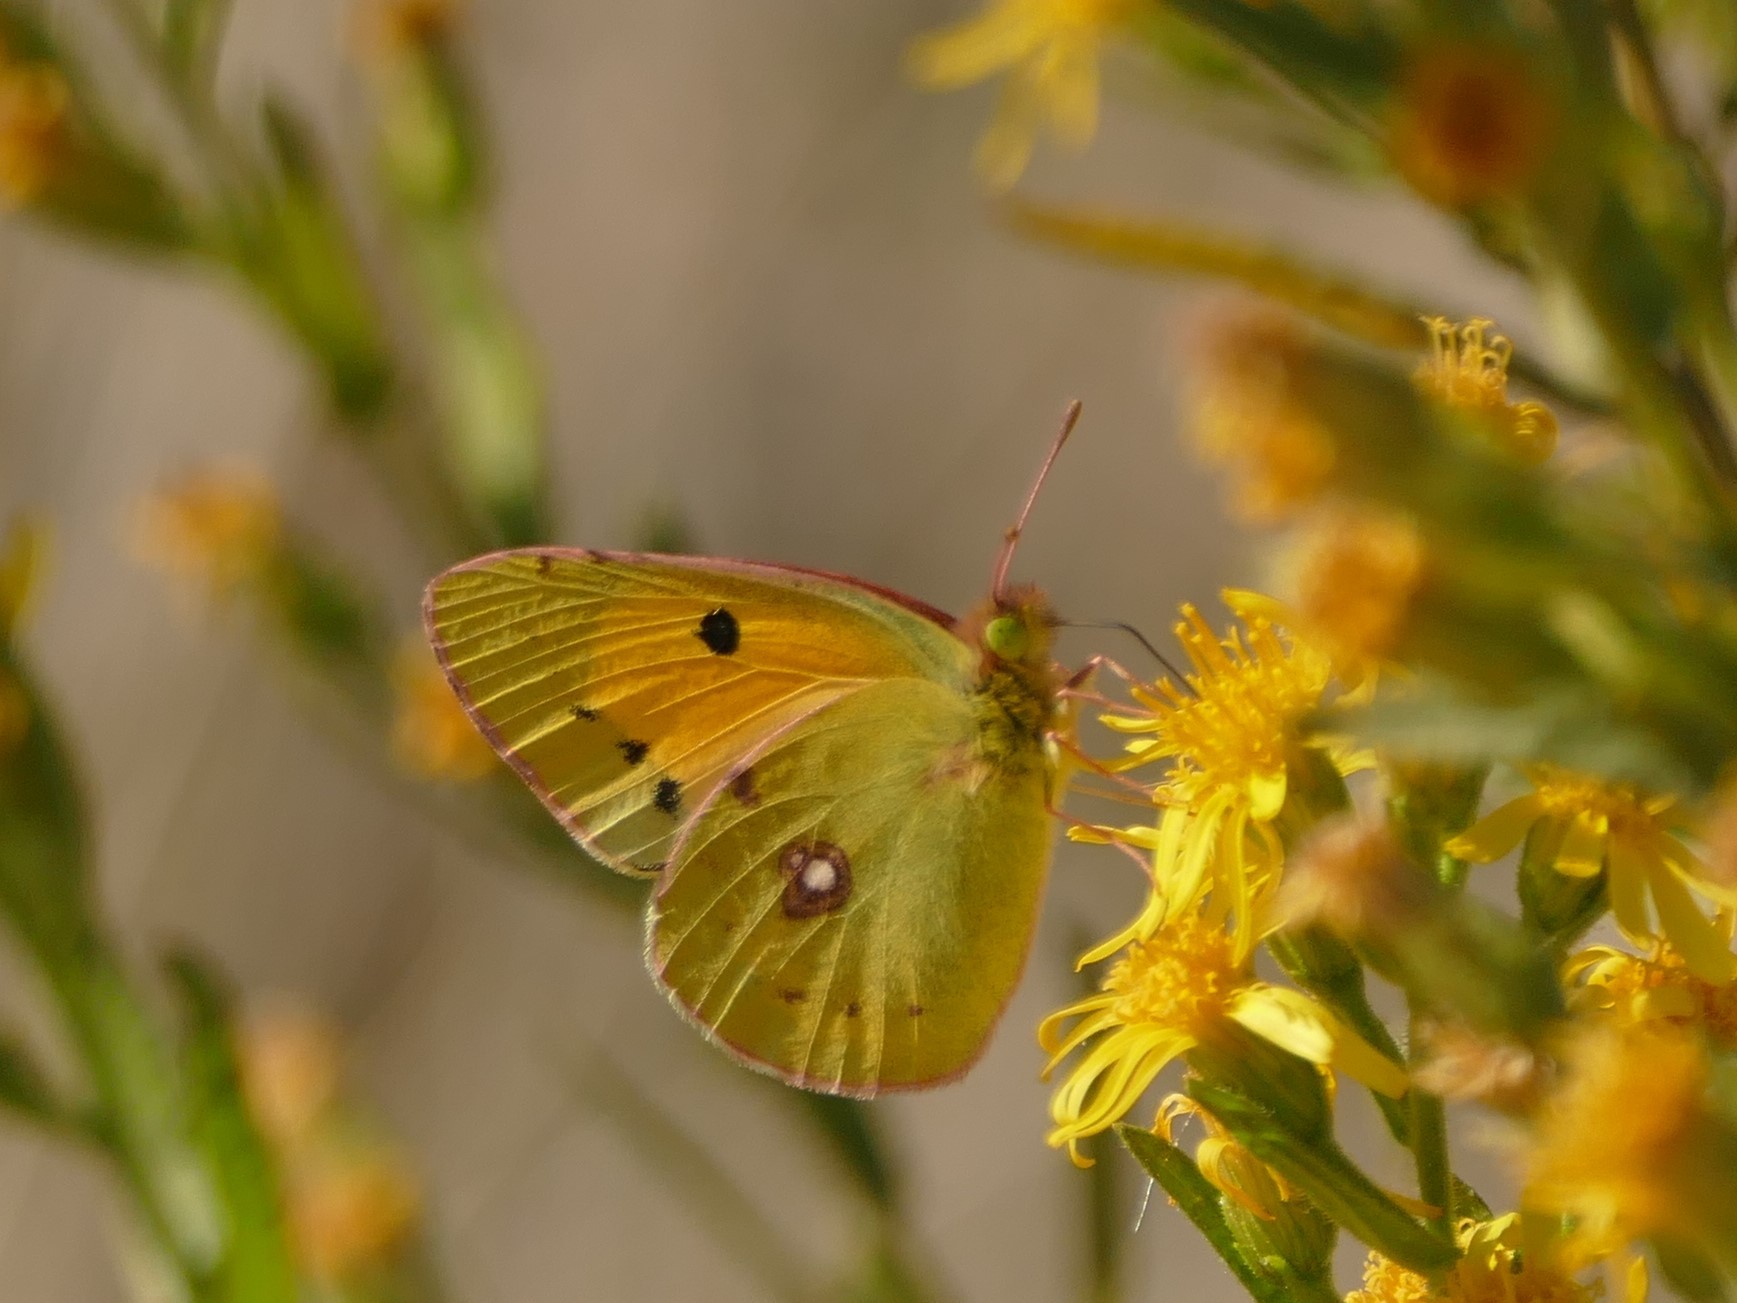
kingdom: Animalia
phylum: Arthropoda
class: Insecta
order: Lepidoptera
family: Pieridae
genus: Colias
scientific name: Colias croceus
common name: Clouded yellow
